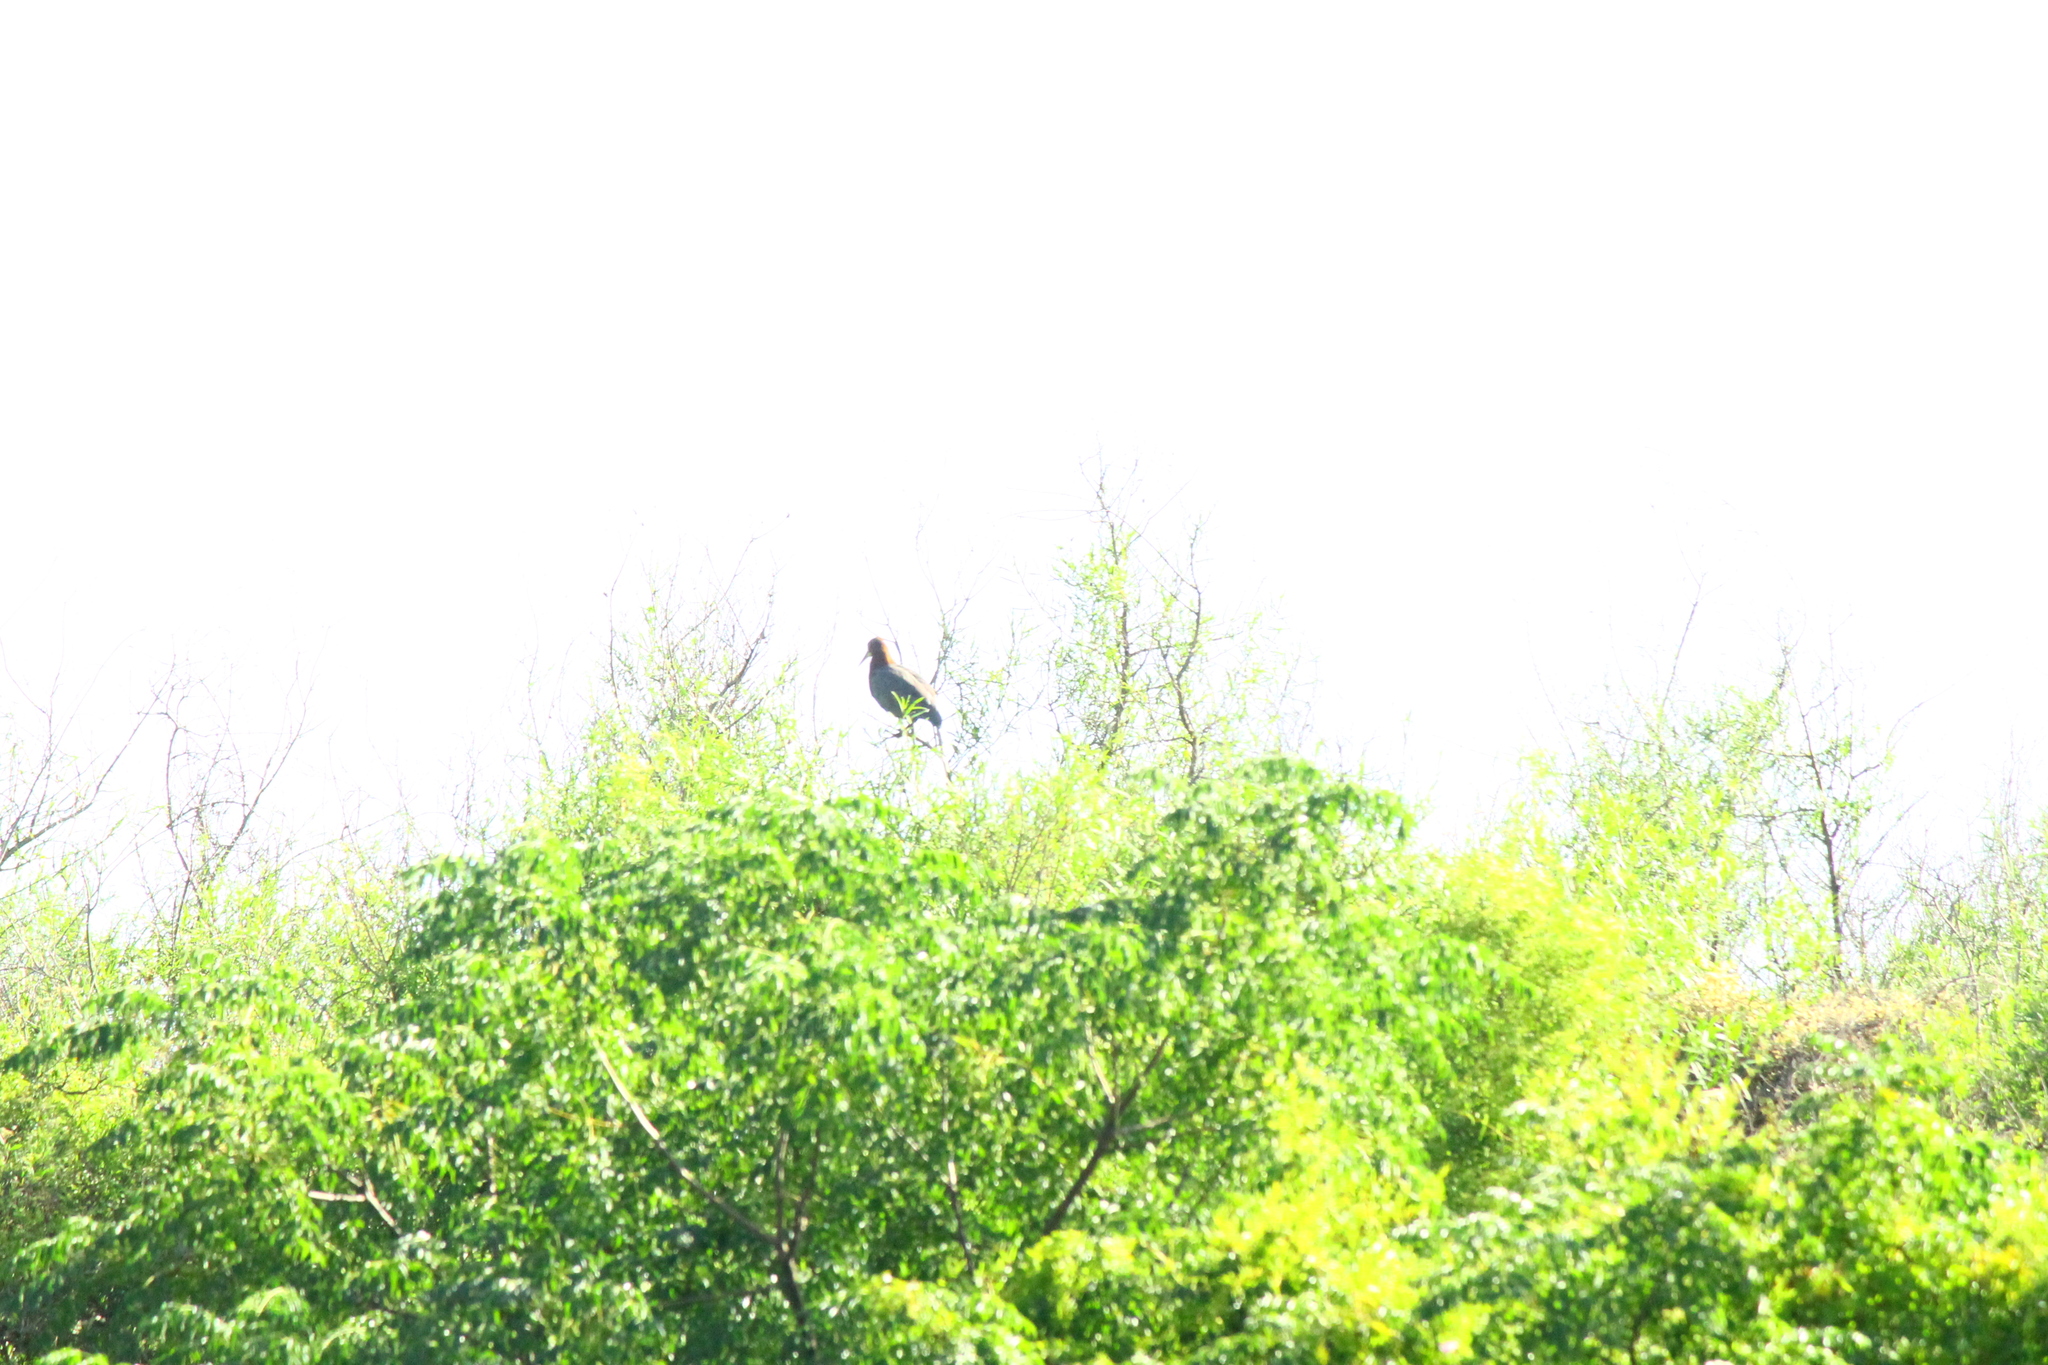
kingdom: Animalia
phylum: Chordata
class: Aves
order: Pelecaniformes
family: Ardeidae
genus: Tigrisoma
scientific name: Tigrisoma lineatum
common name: Rufescent tiger-heron
